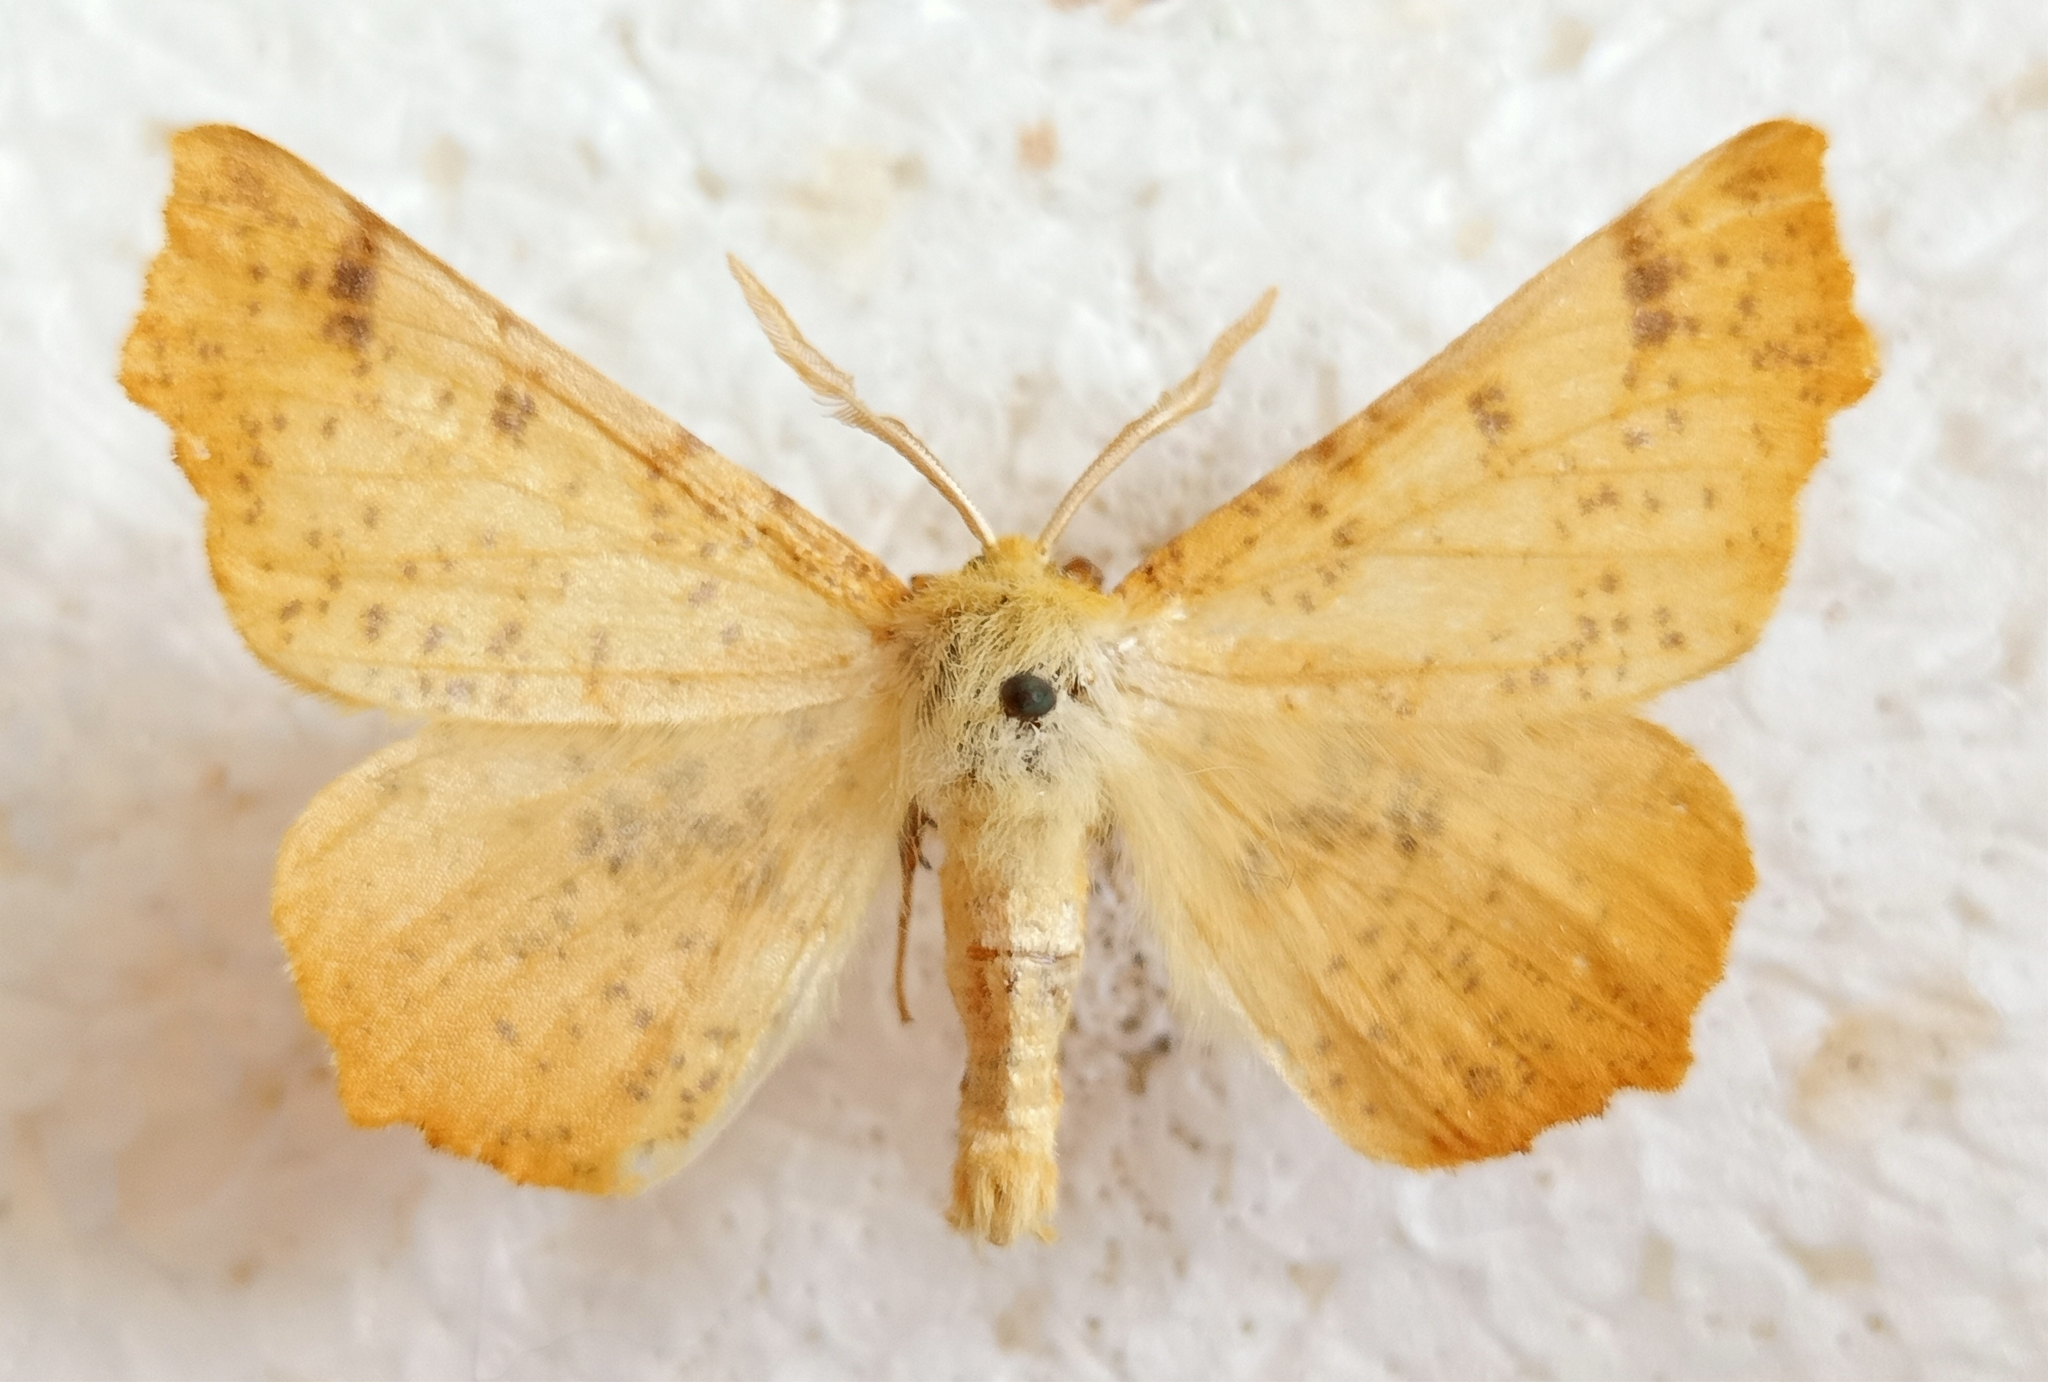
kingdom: Animalia
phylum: Arthropoda
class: Insecta
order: Lepidoptera
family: Geometridae
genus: Ennomos
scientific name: Ennomos autumnaria
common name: Large thorn
